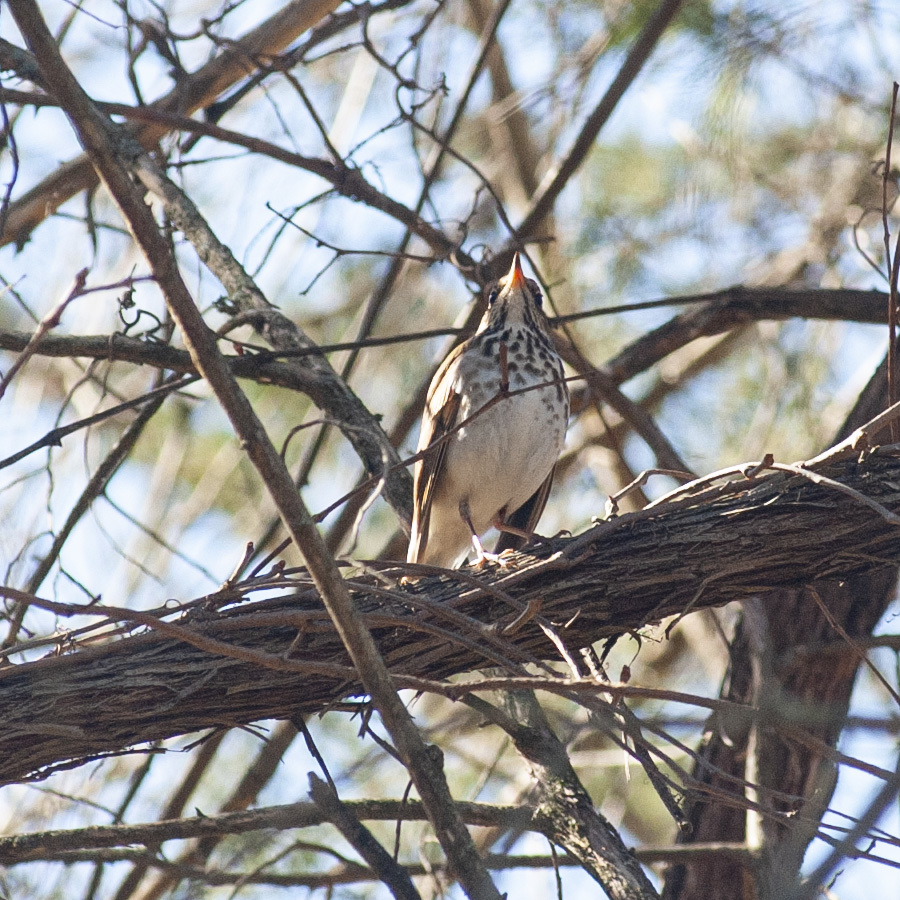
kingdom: Animalia
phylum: Chordata
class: Aves
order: Passeriformes
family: Turdidae
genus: Catharus
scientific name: Catharus guttatus
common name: Hermit thrush
